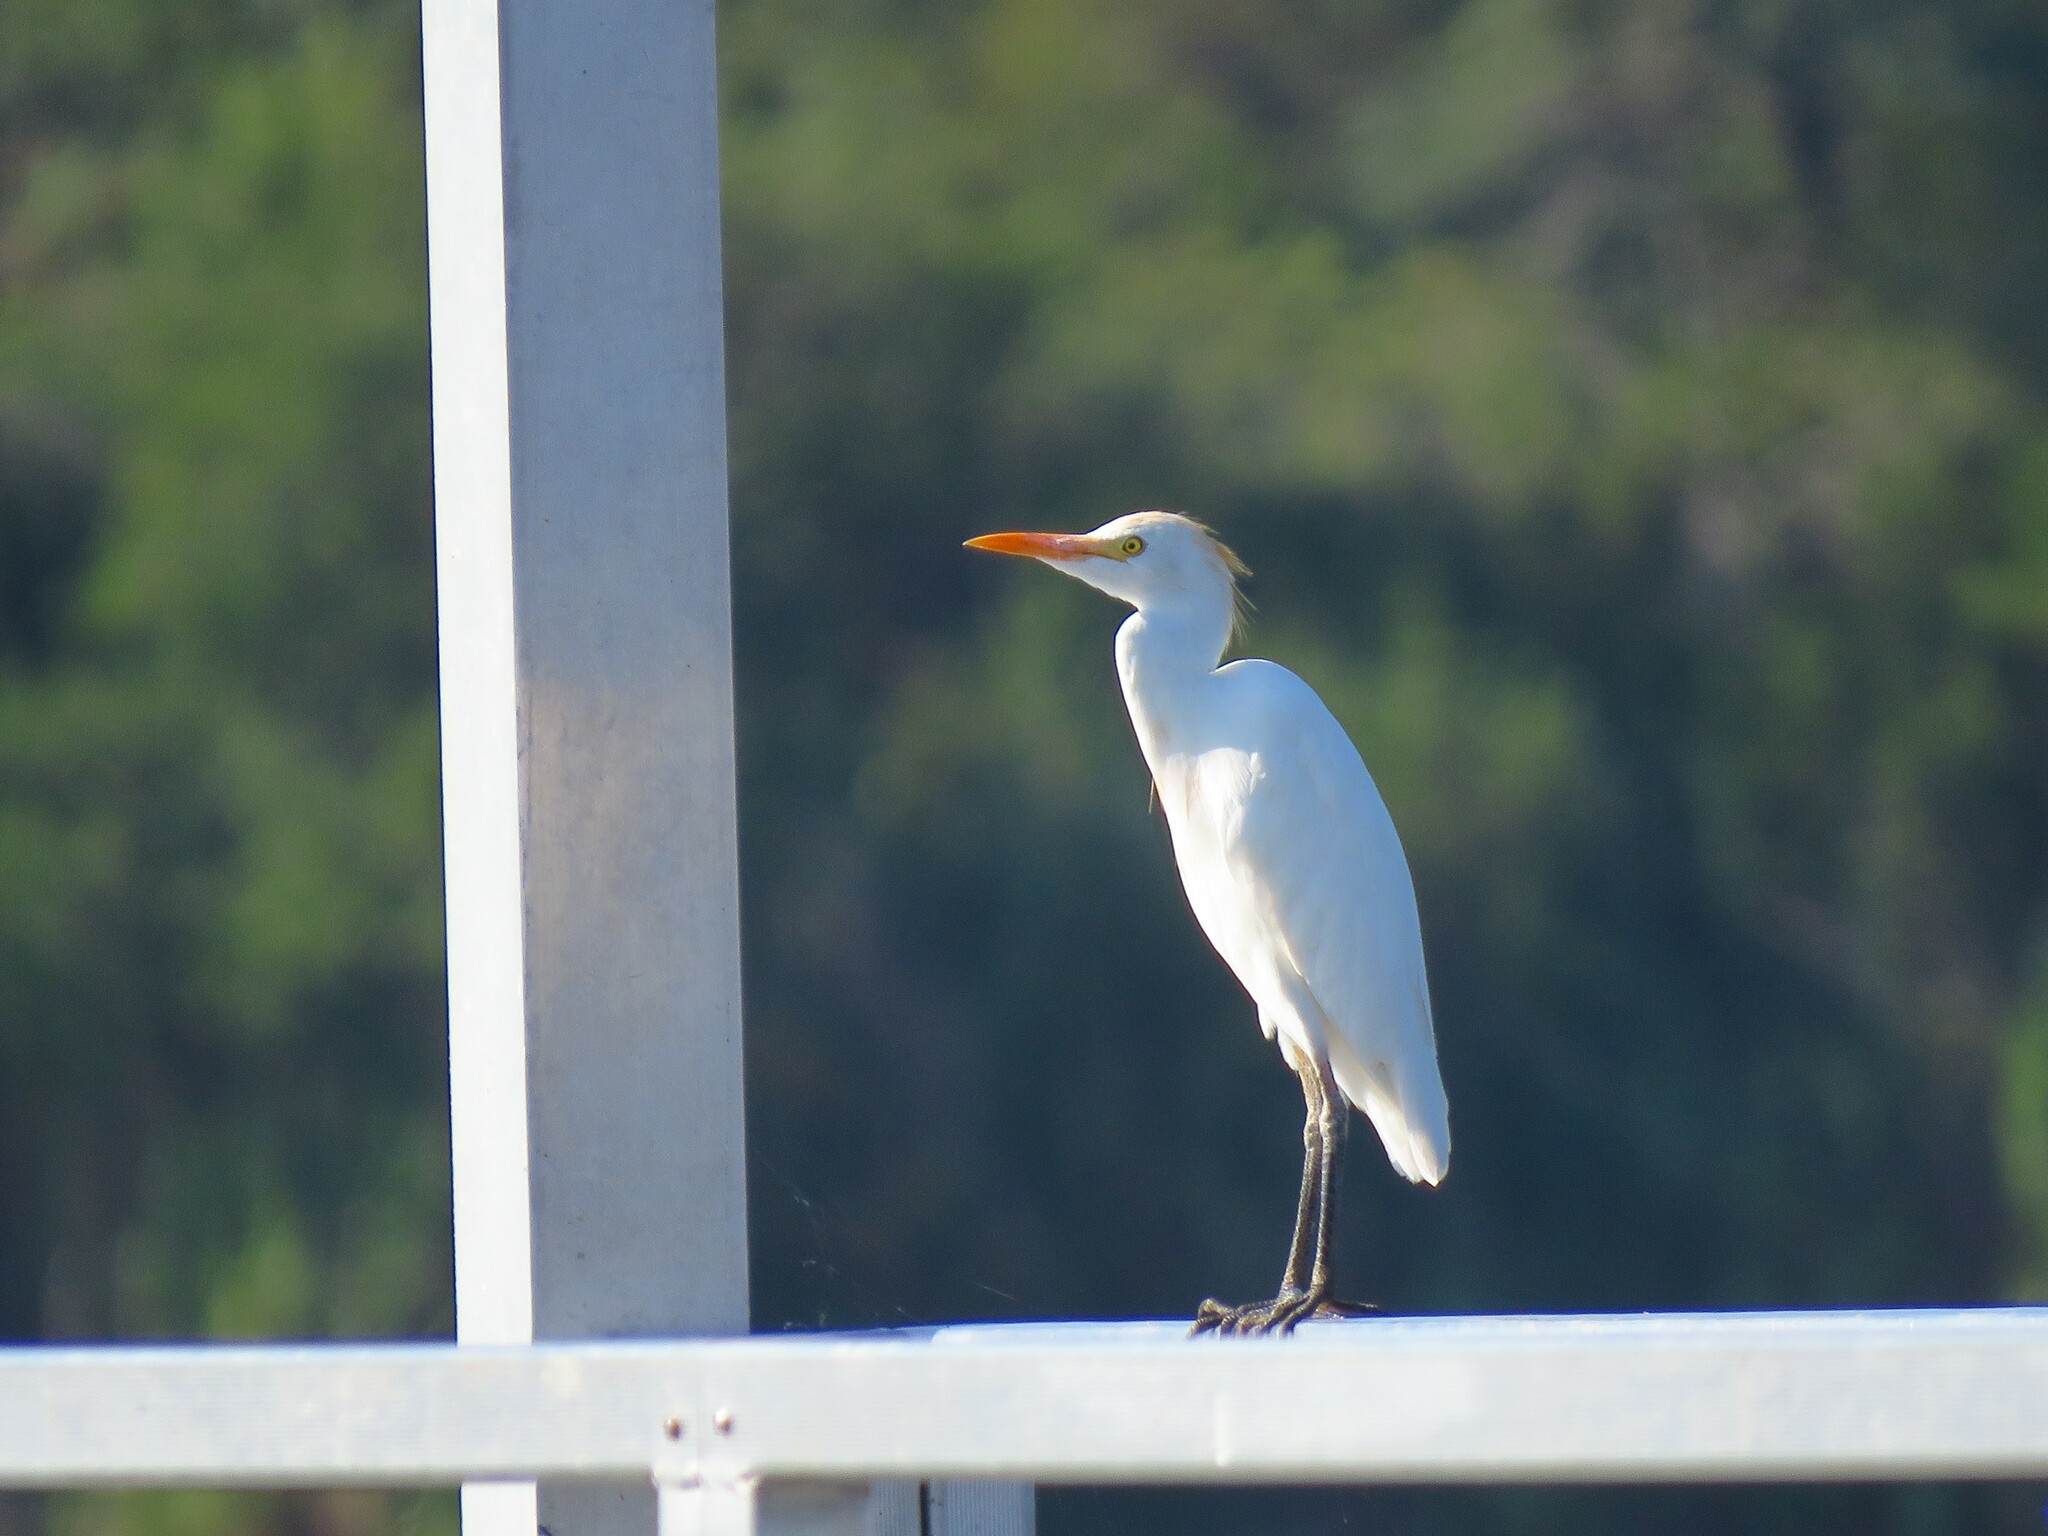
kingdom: Animalia
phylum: Chordata
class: Aves
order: Pelecaniformes
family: Ardeidae
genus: Bubulcus
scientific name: Bubulcus ibis
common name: Cattle egret
